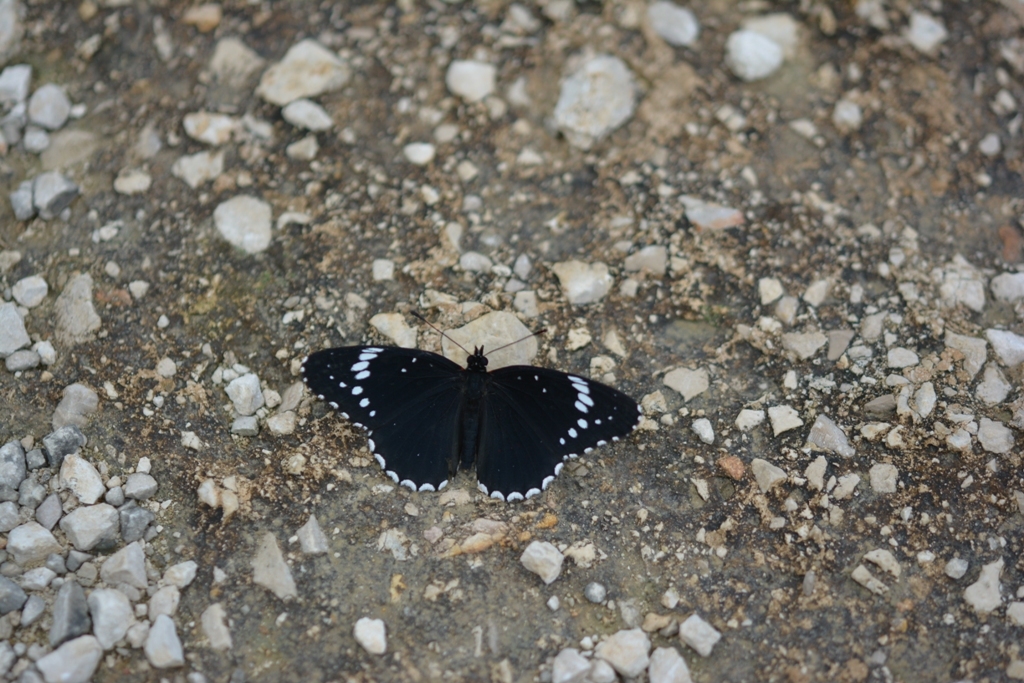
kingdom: Animalia
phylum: Arthropoda
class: Insecta
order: Lepidoptera
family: Nymphalidae
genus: Chlosyne
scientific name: Chlosyne hippodrome
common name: Simple patch
